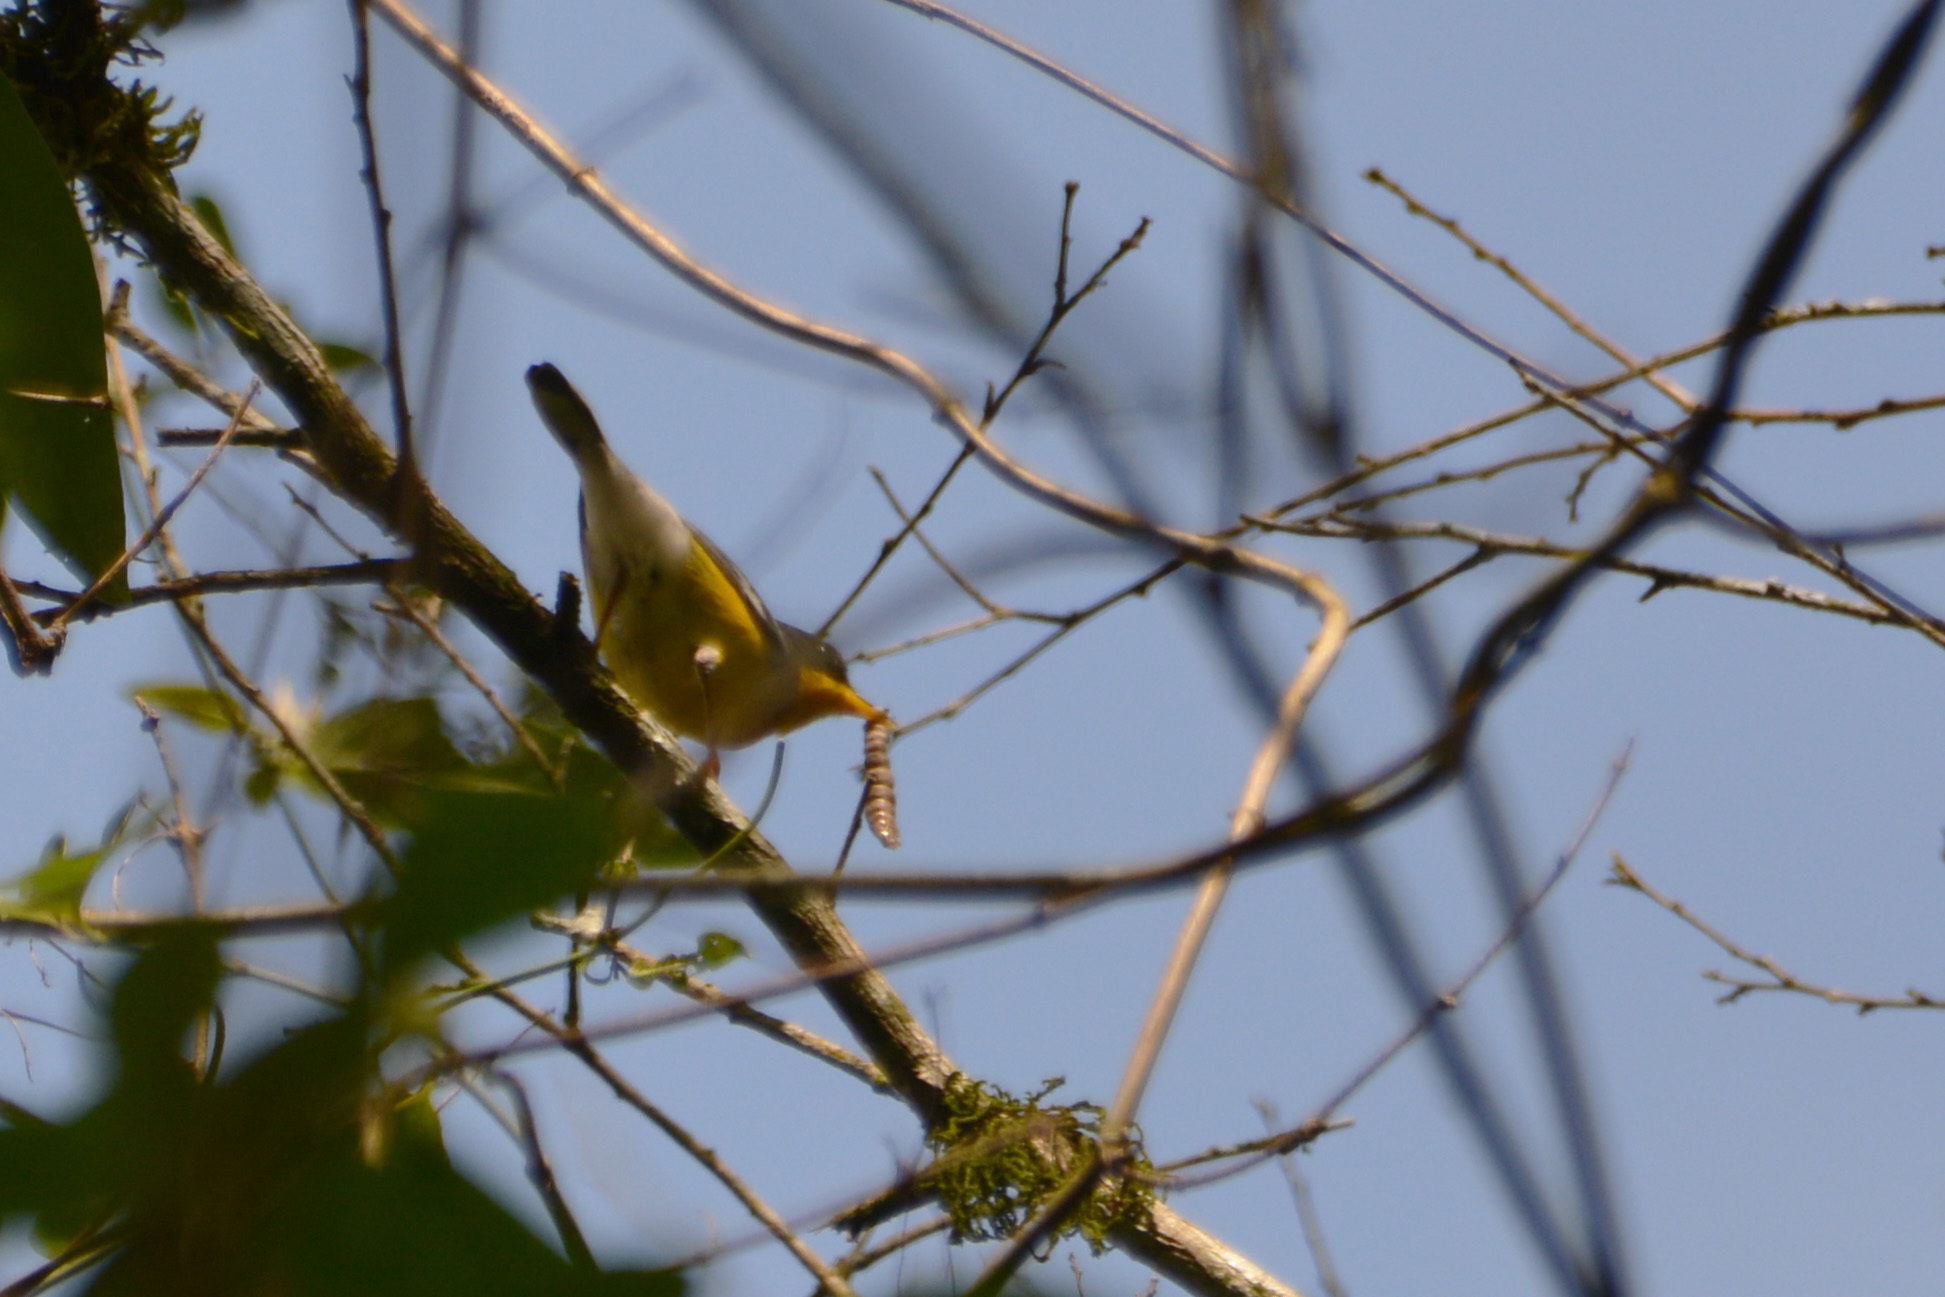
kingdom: Animalia
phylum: Chordata
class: Aves
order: Passeriformes
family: Parulidae
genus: Setophaga
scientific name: Setophaga pitiayumi
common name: Tropical parula
